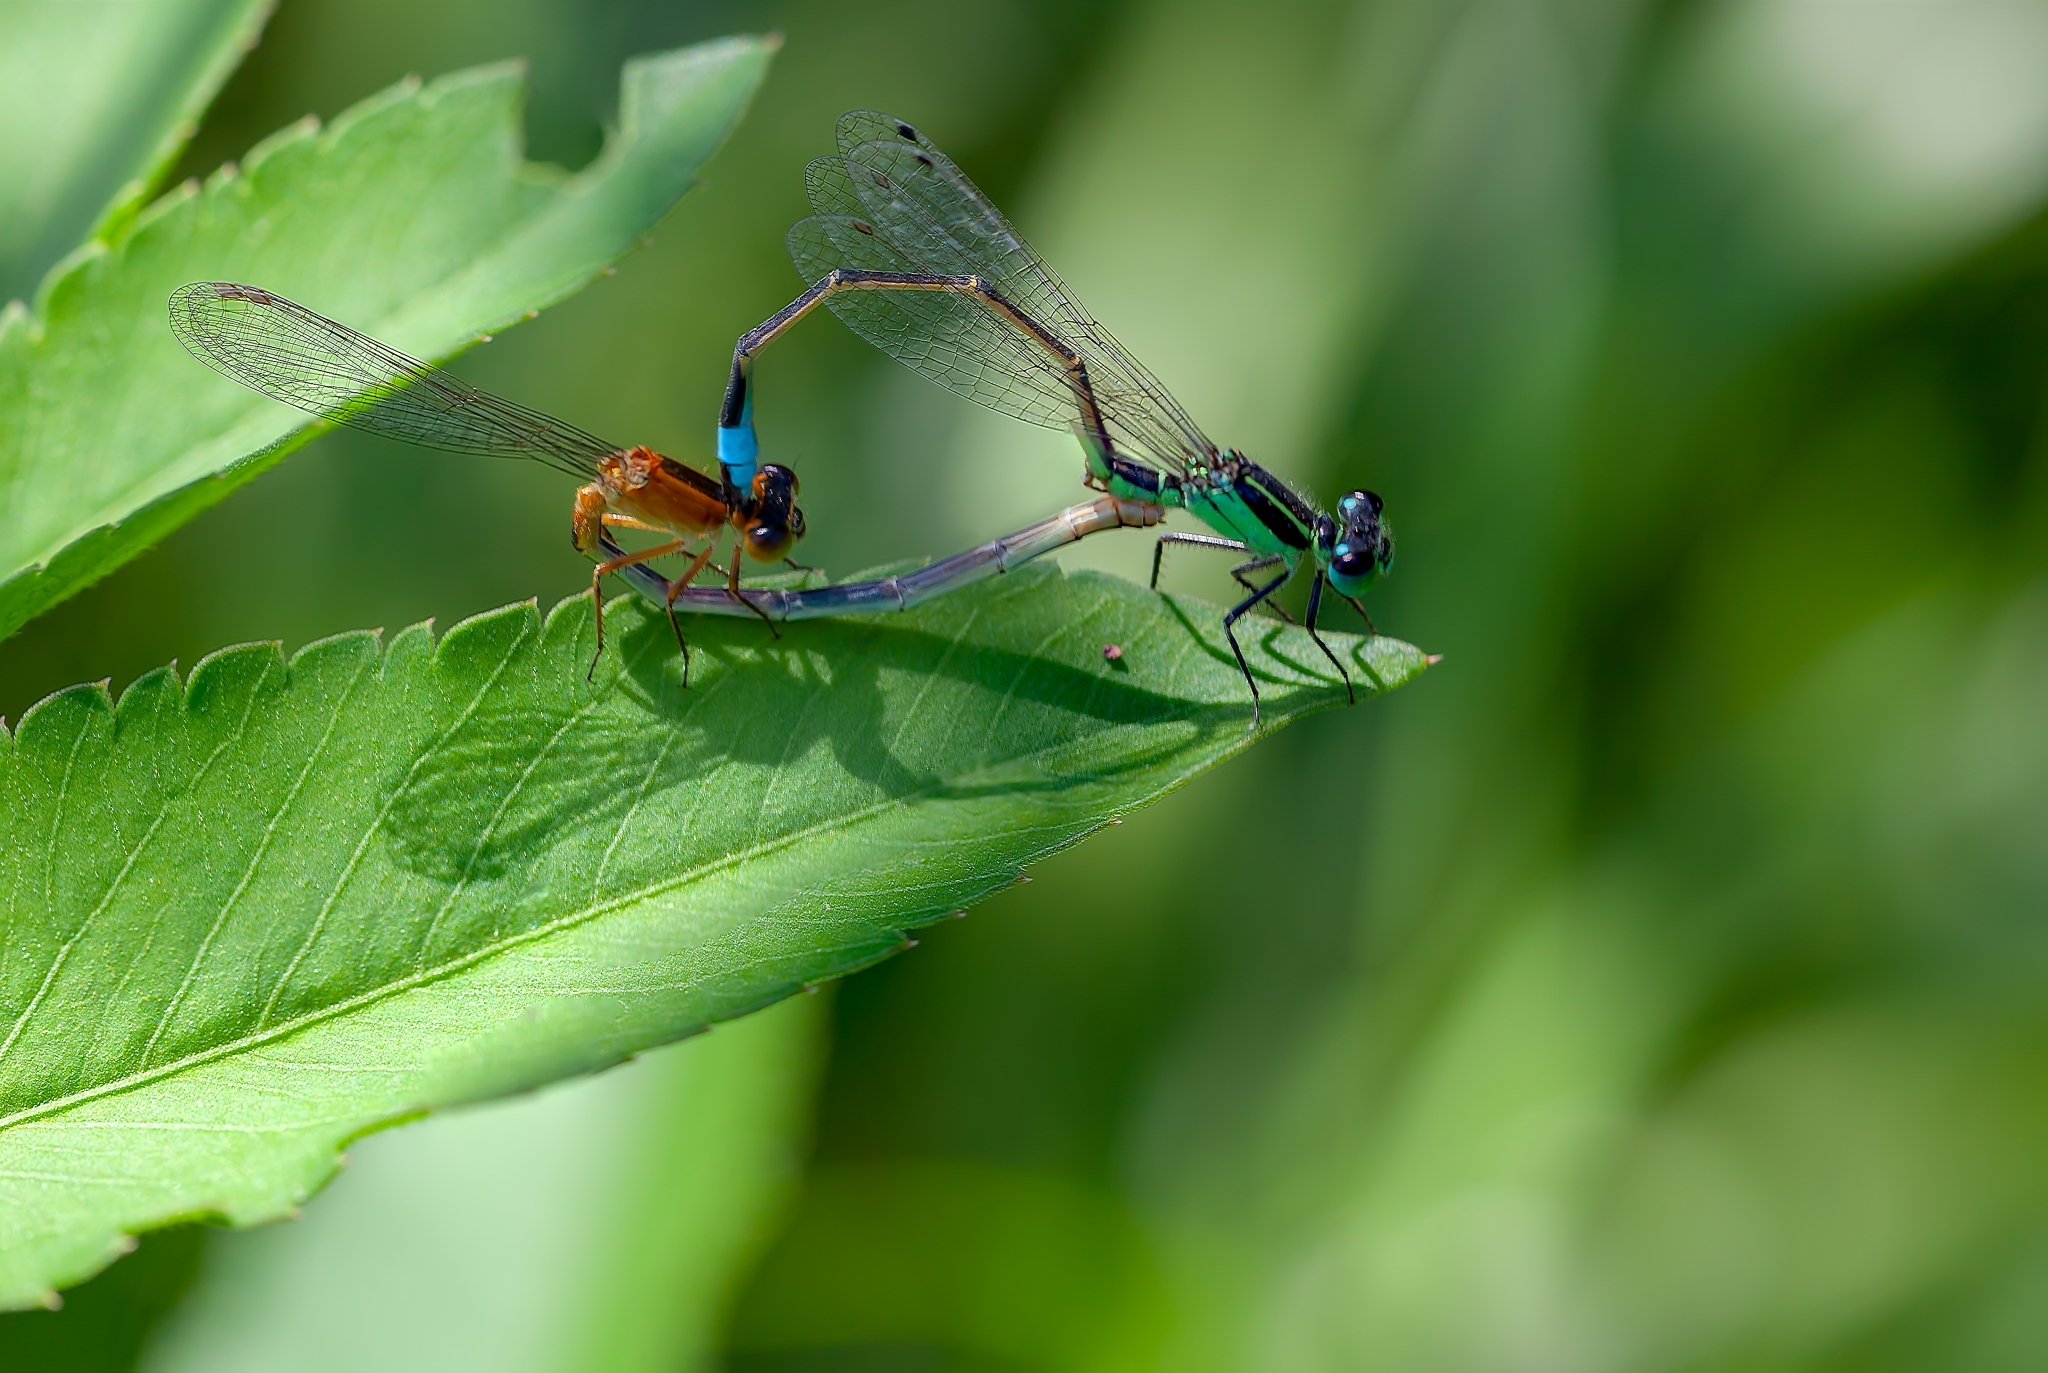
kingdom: Animalia
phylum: Arthropoda
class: Insecta
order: Odonata
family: Coenagrionidae
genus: Ischnura
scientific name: Ischnura ramburii
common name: Rambur's forktail
